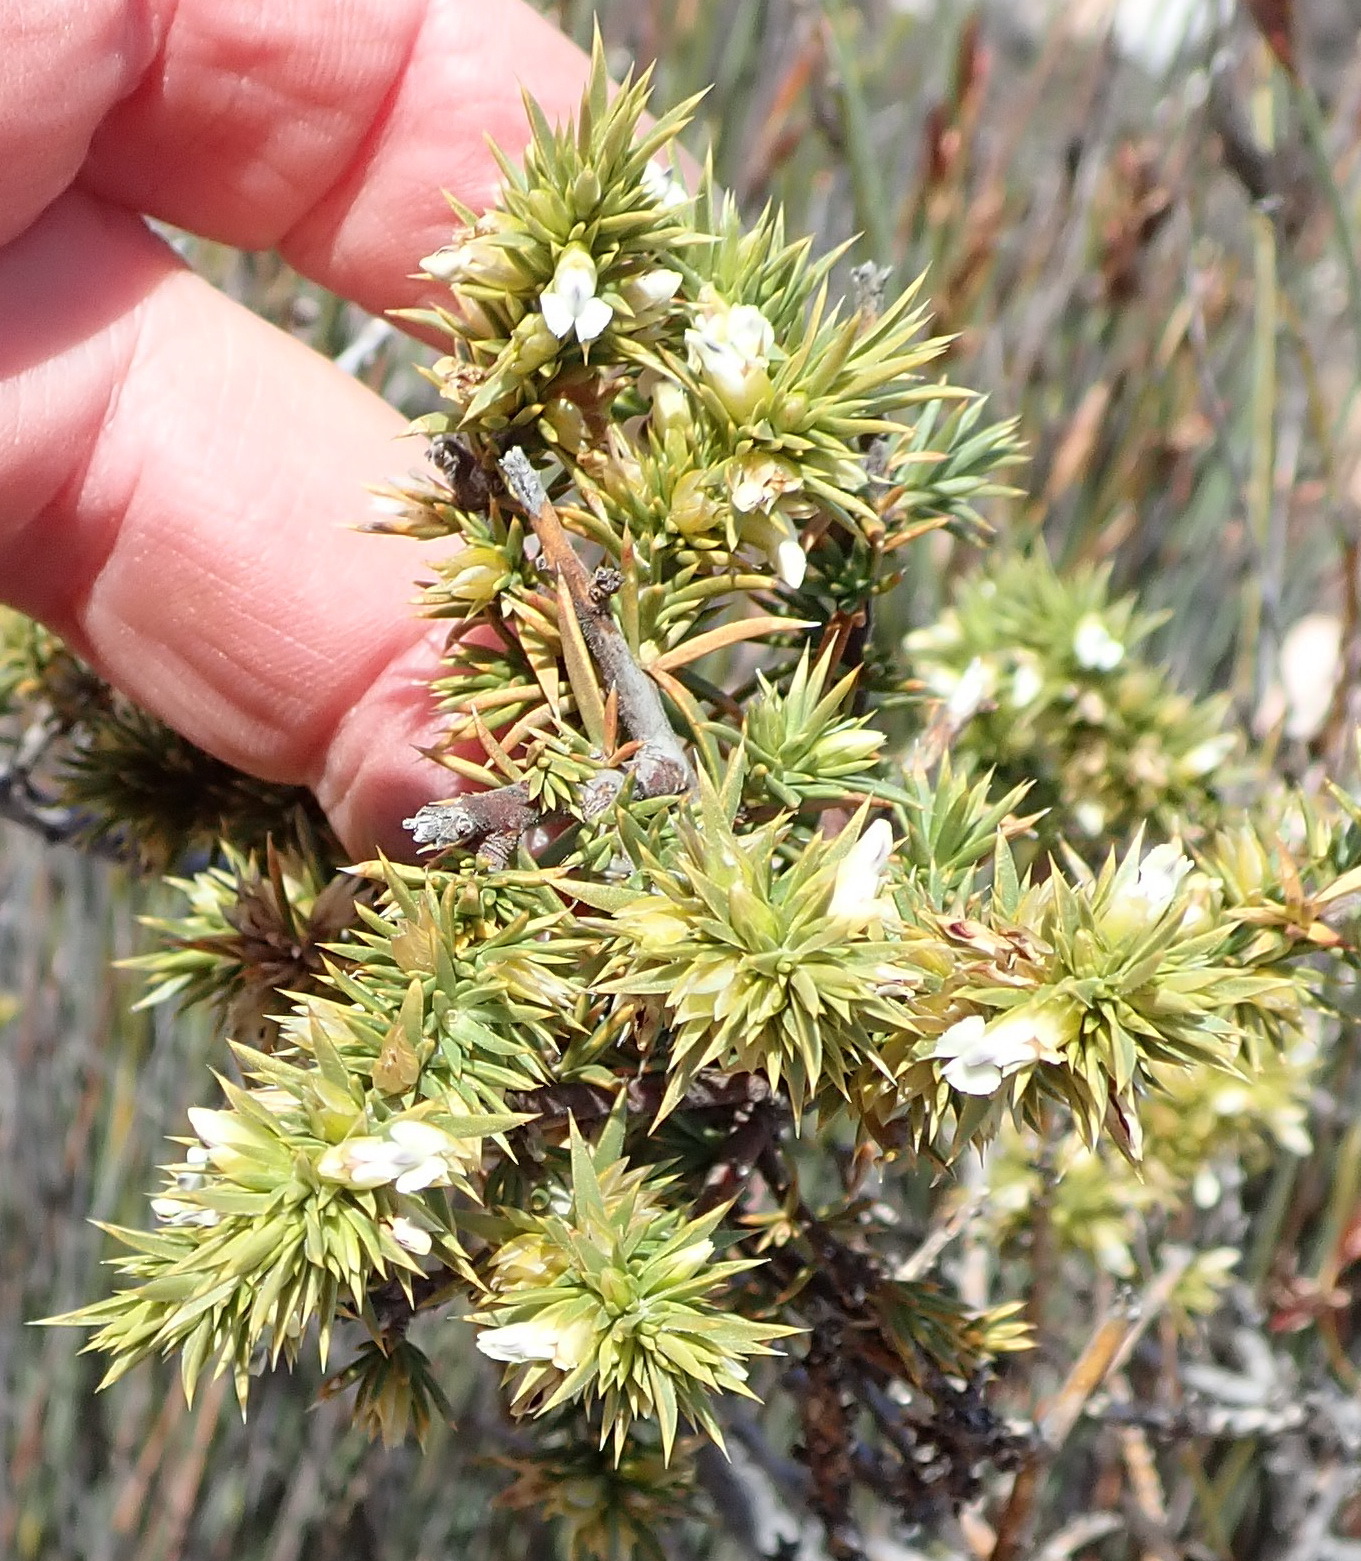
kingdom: Plantae
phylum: Tracheophyta
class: Magnoliopsida
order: Fabales
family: Polygalaceae
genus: Muraltia
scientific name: Muraltia ericifolia
